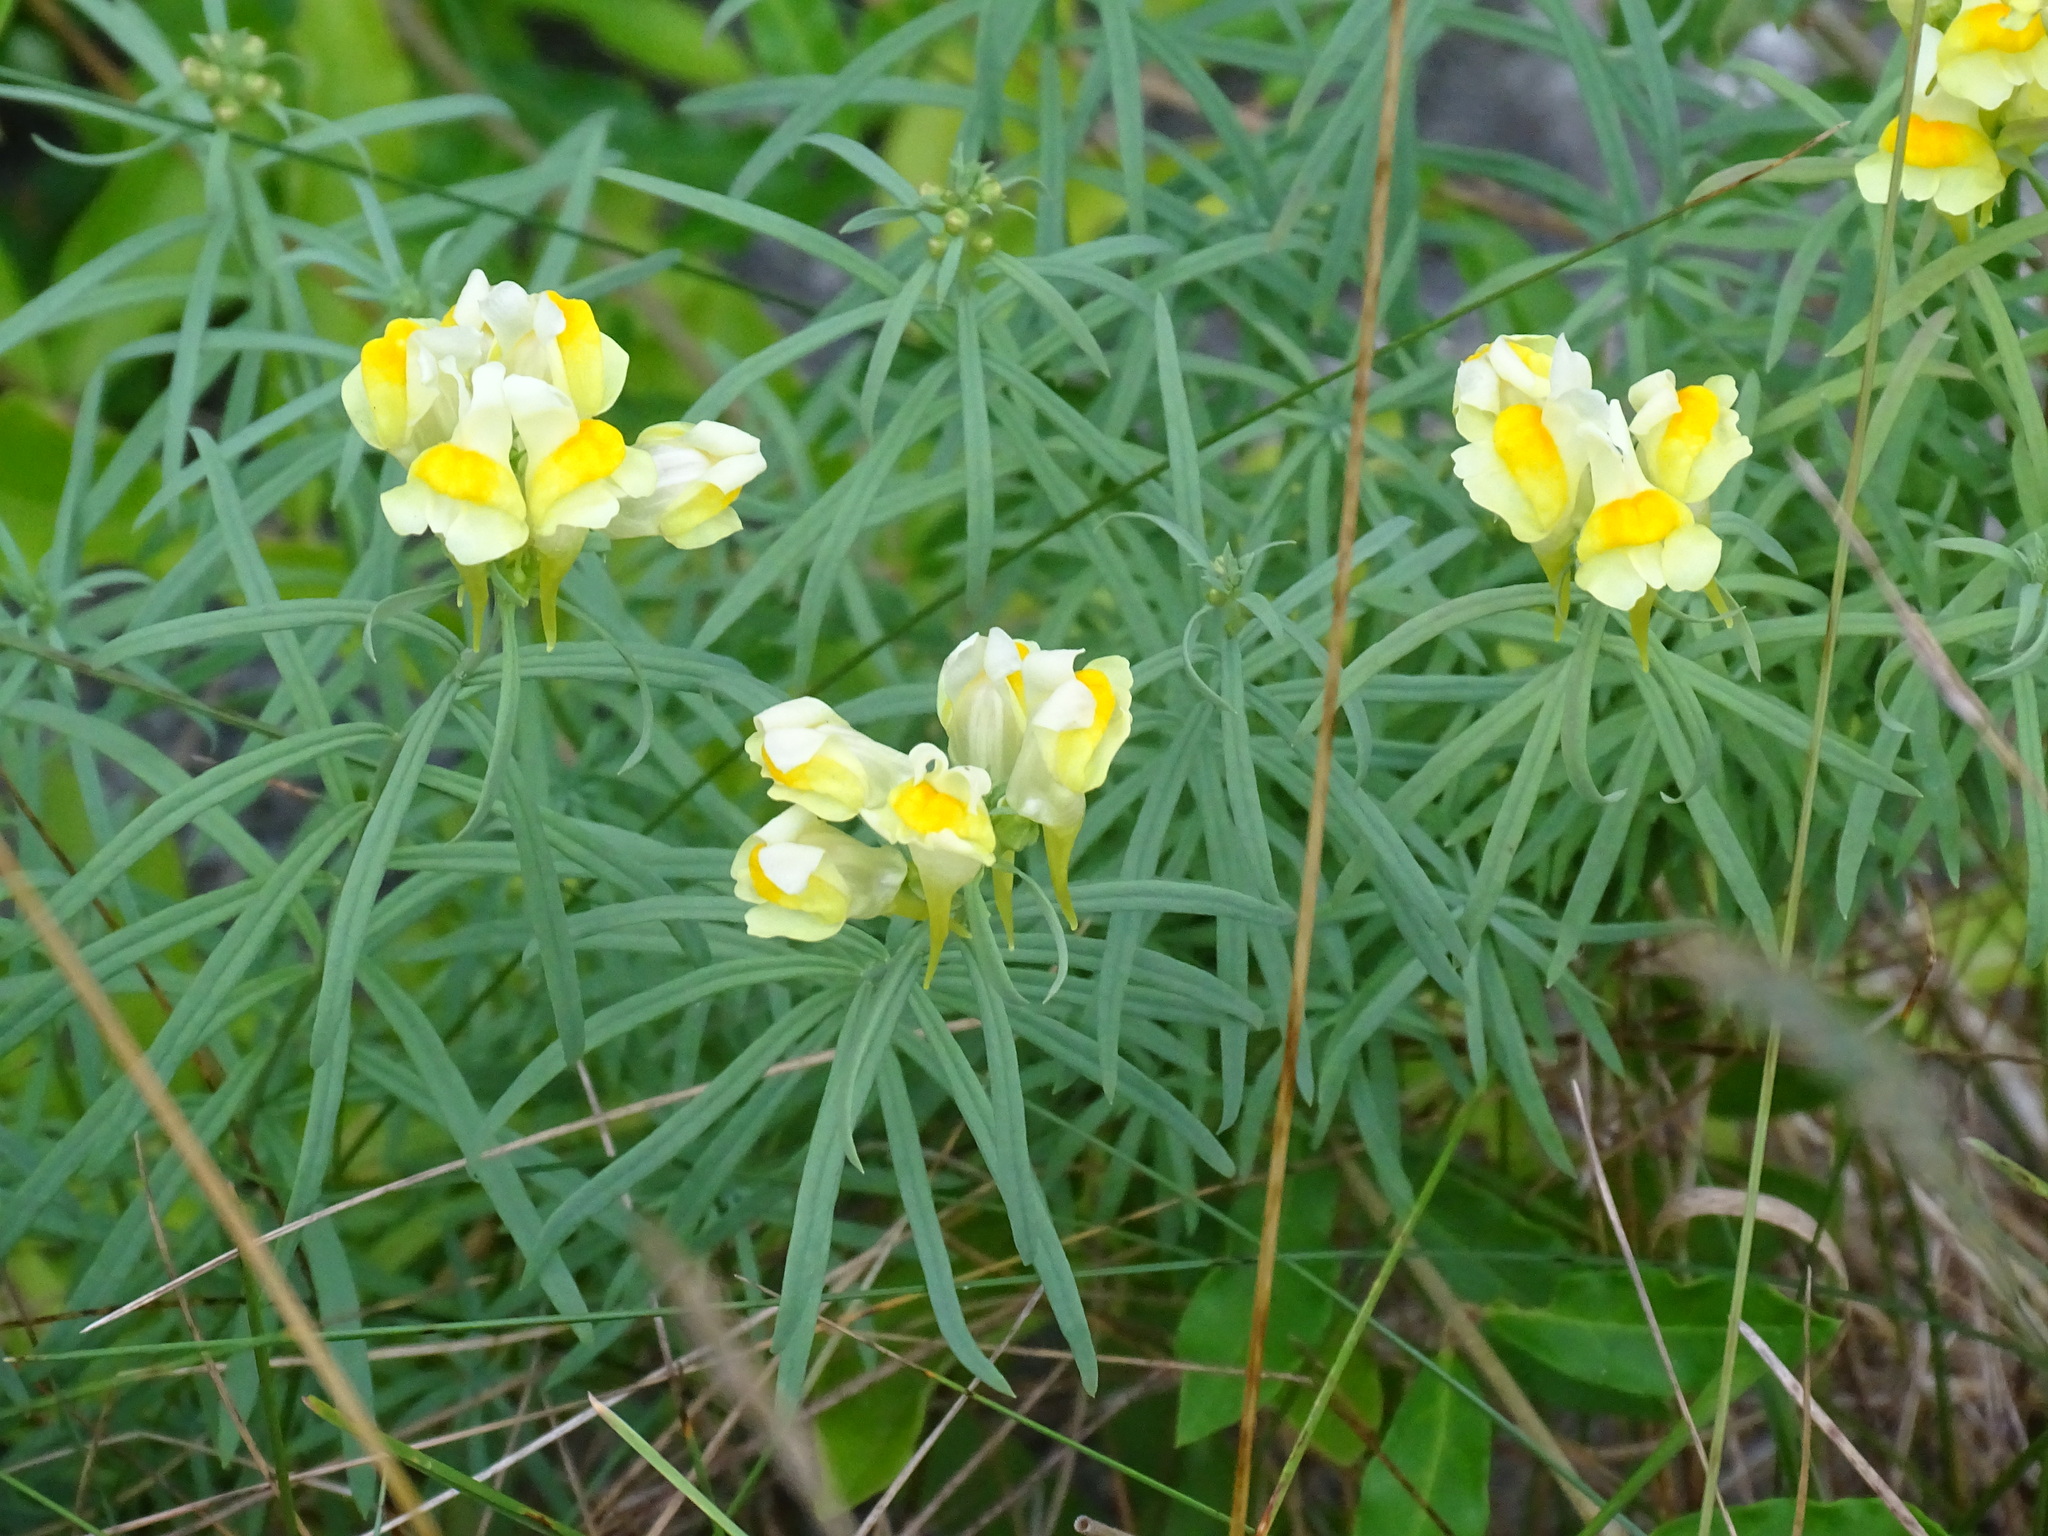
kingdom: Plantae
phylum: Tracheophyta
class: Magnoliopsida
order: Lamiales
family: Plantaginaceae
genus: Linaria
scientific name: Linaria vulgaris
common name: Butter and eggs
